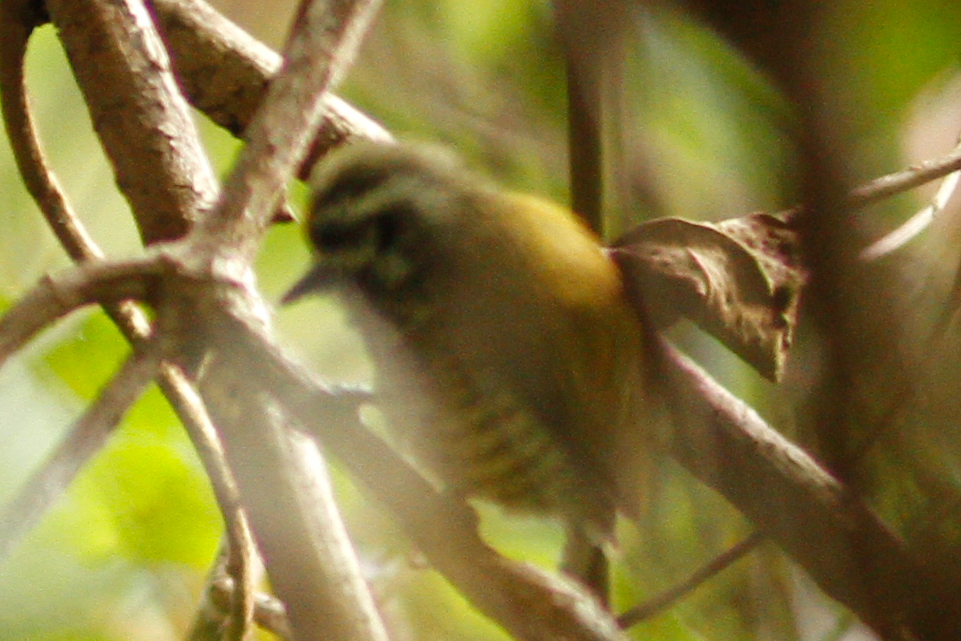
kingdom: Animalia
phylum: Chordata
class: Aves
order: Piciformes
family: Picidae
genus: Picumnus
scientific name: Picumnus innominatus
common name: Speckled piculet
